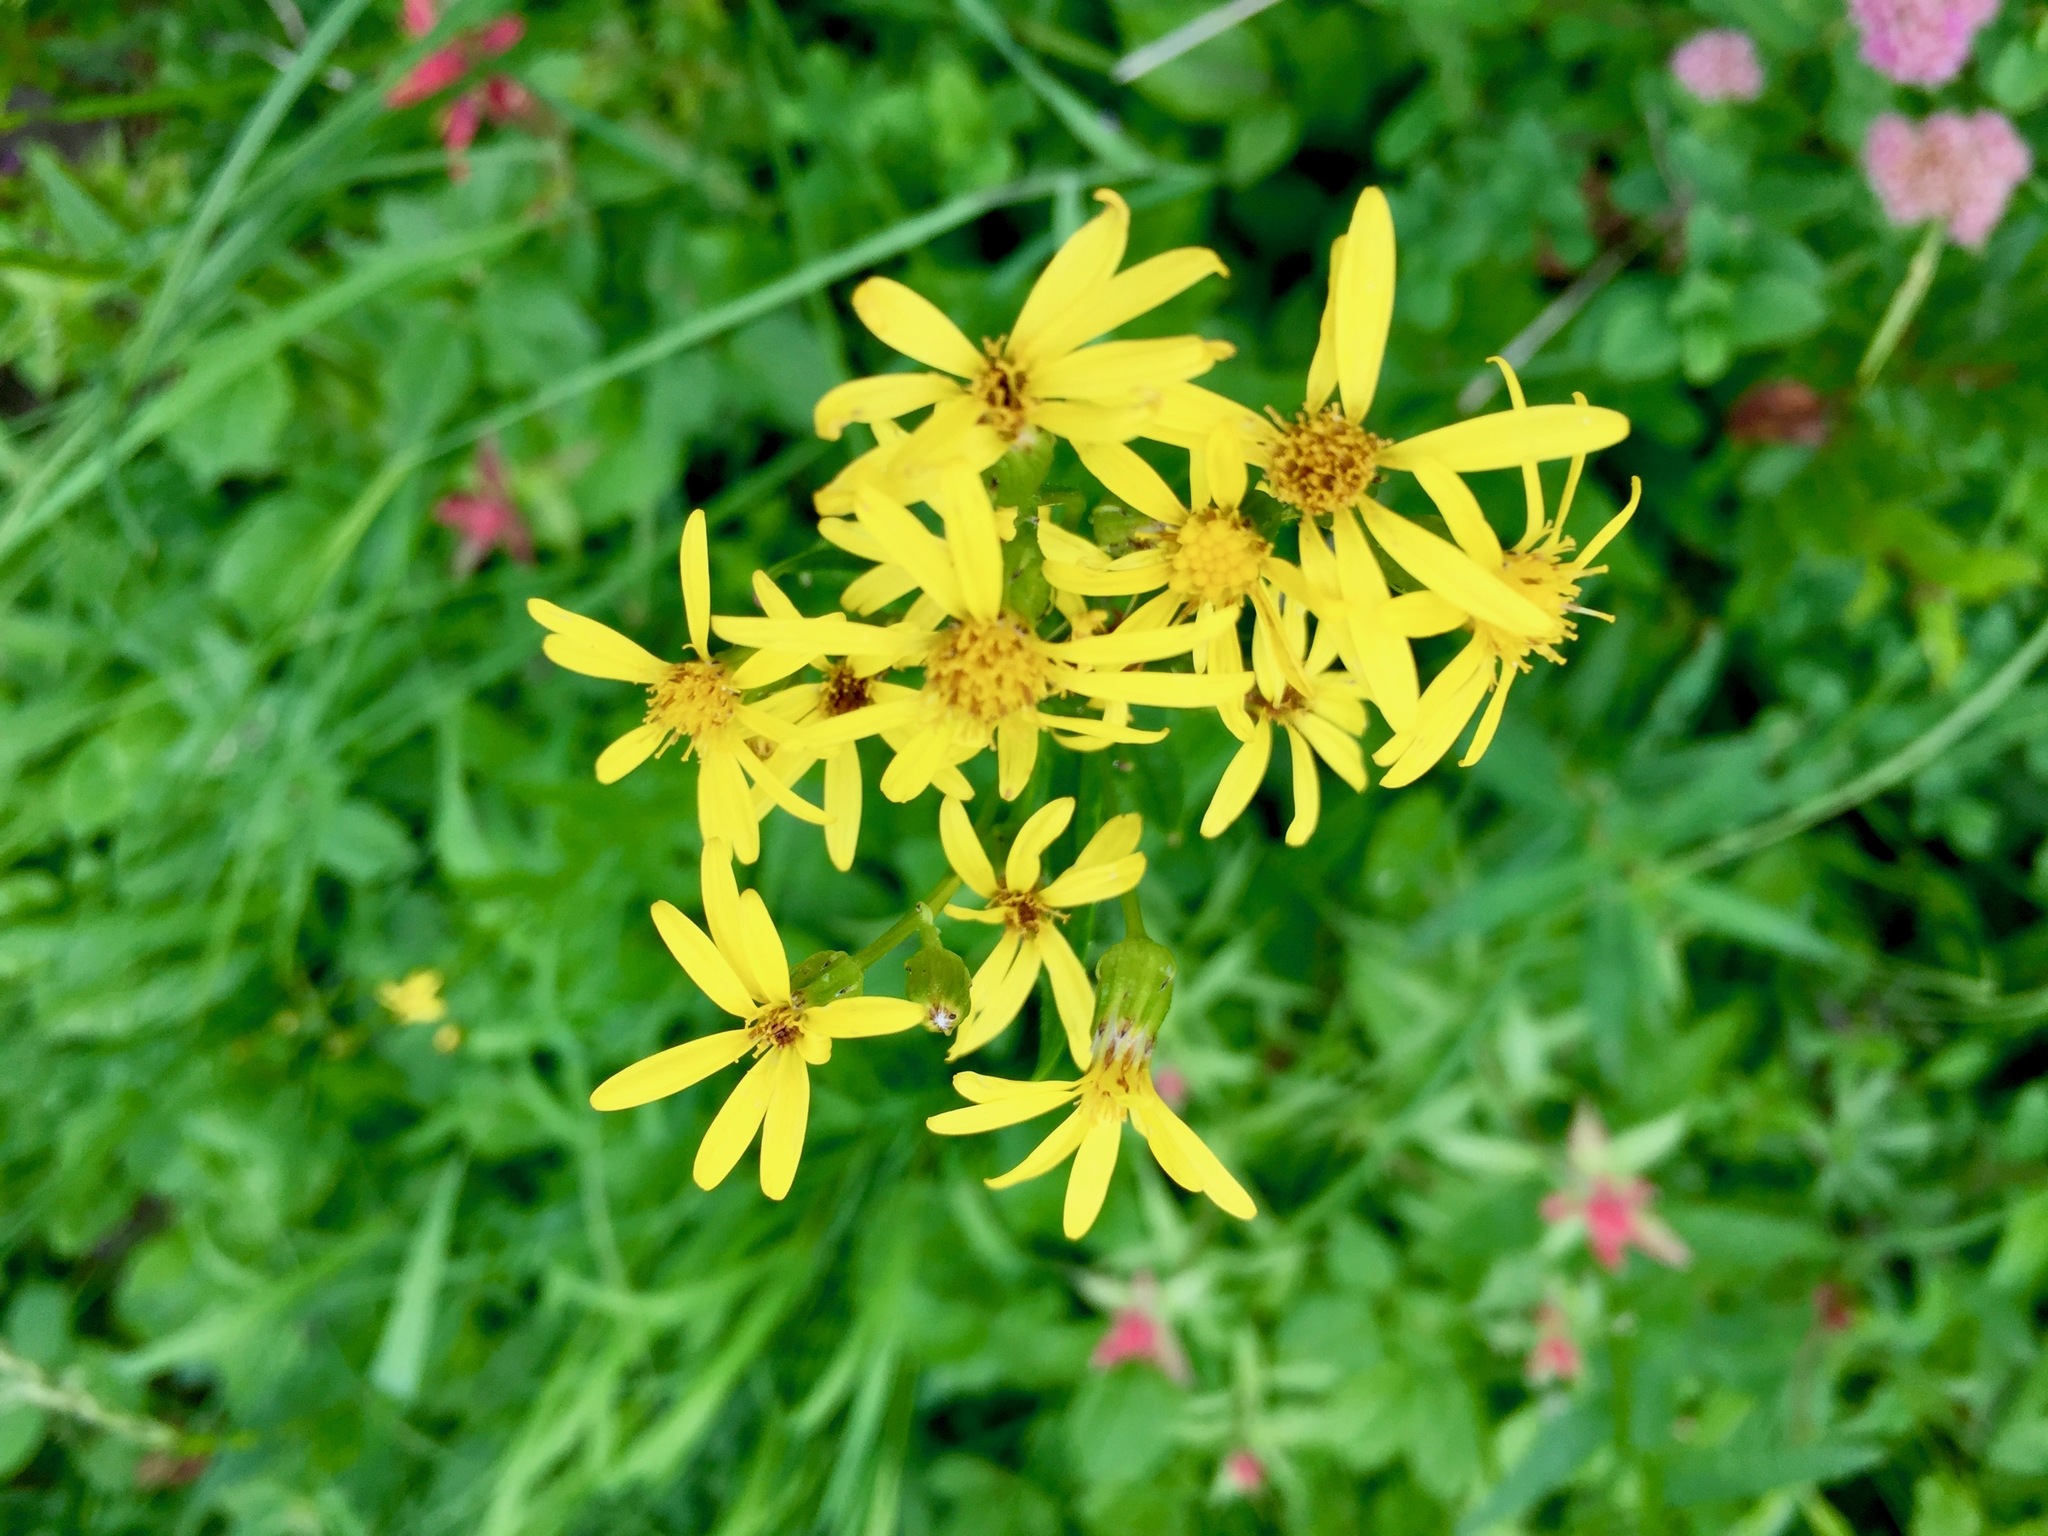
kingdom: Plantae
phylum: Tracheophyta
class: Magnoliopsida
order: Asterales
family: Asteraceae
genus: Senecio
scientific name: Senecio triangularis
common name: Arrowleaf butterweed
